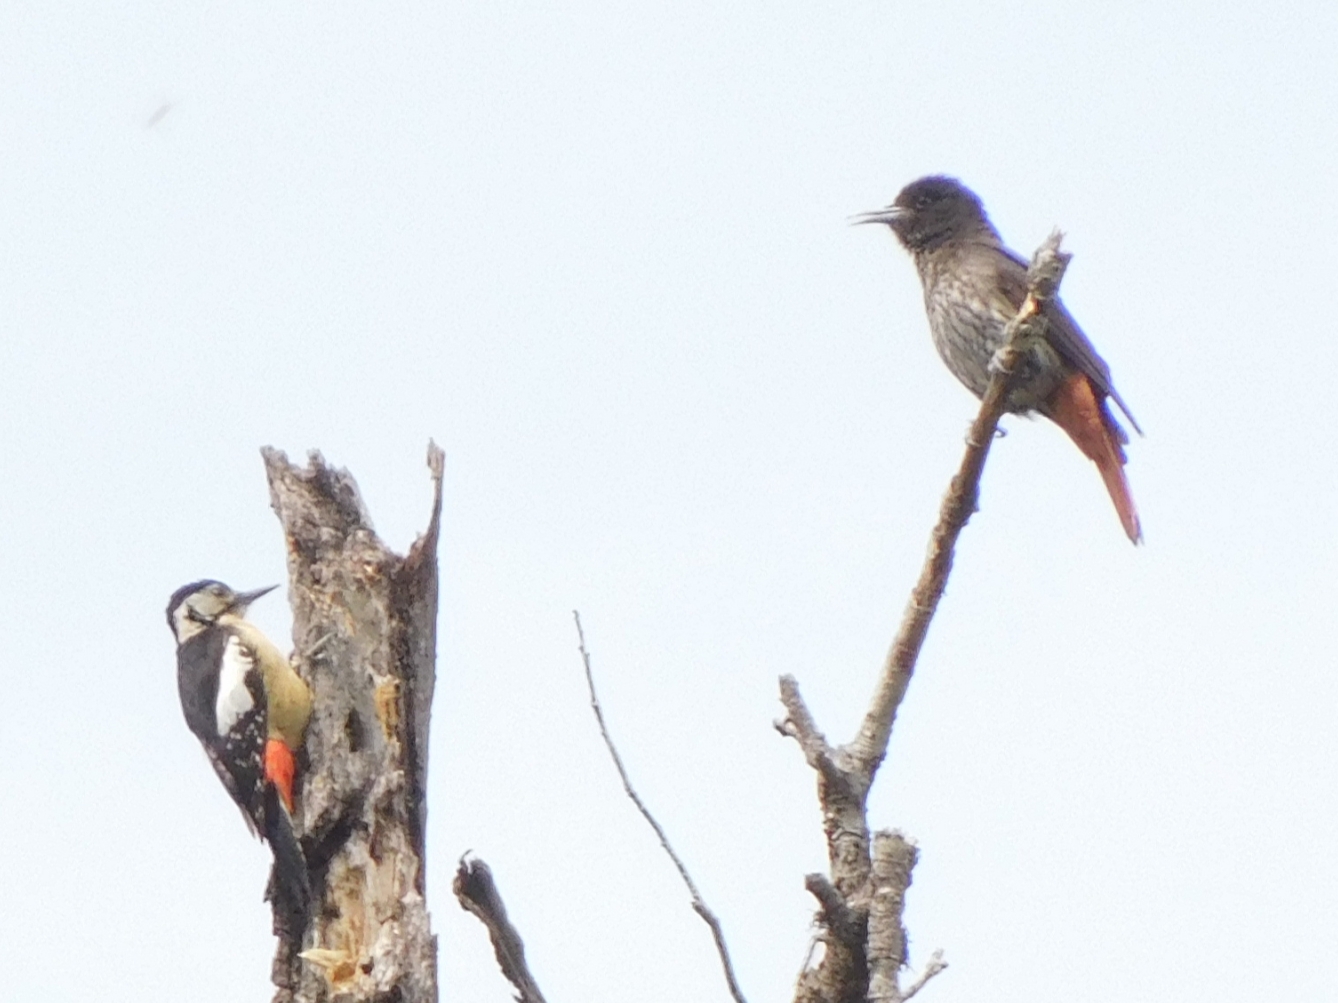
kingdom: Animalia
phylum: Chordata
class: Aves
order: Piciformes
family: Picidae
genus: Dendrocopos
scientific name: Dendrocopos himalayensis
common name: Himalayan woodpecker
